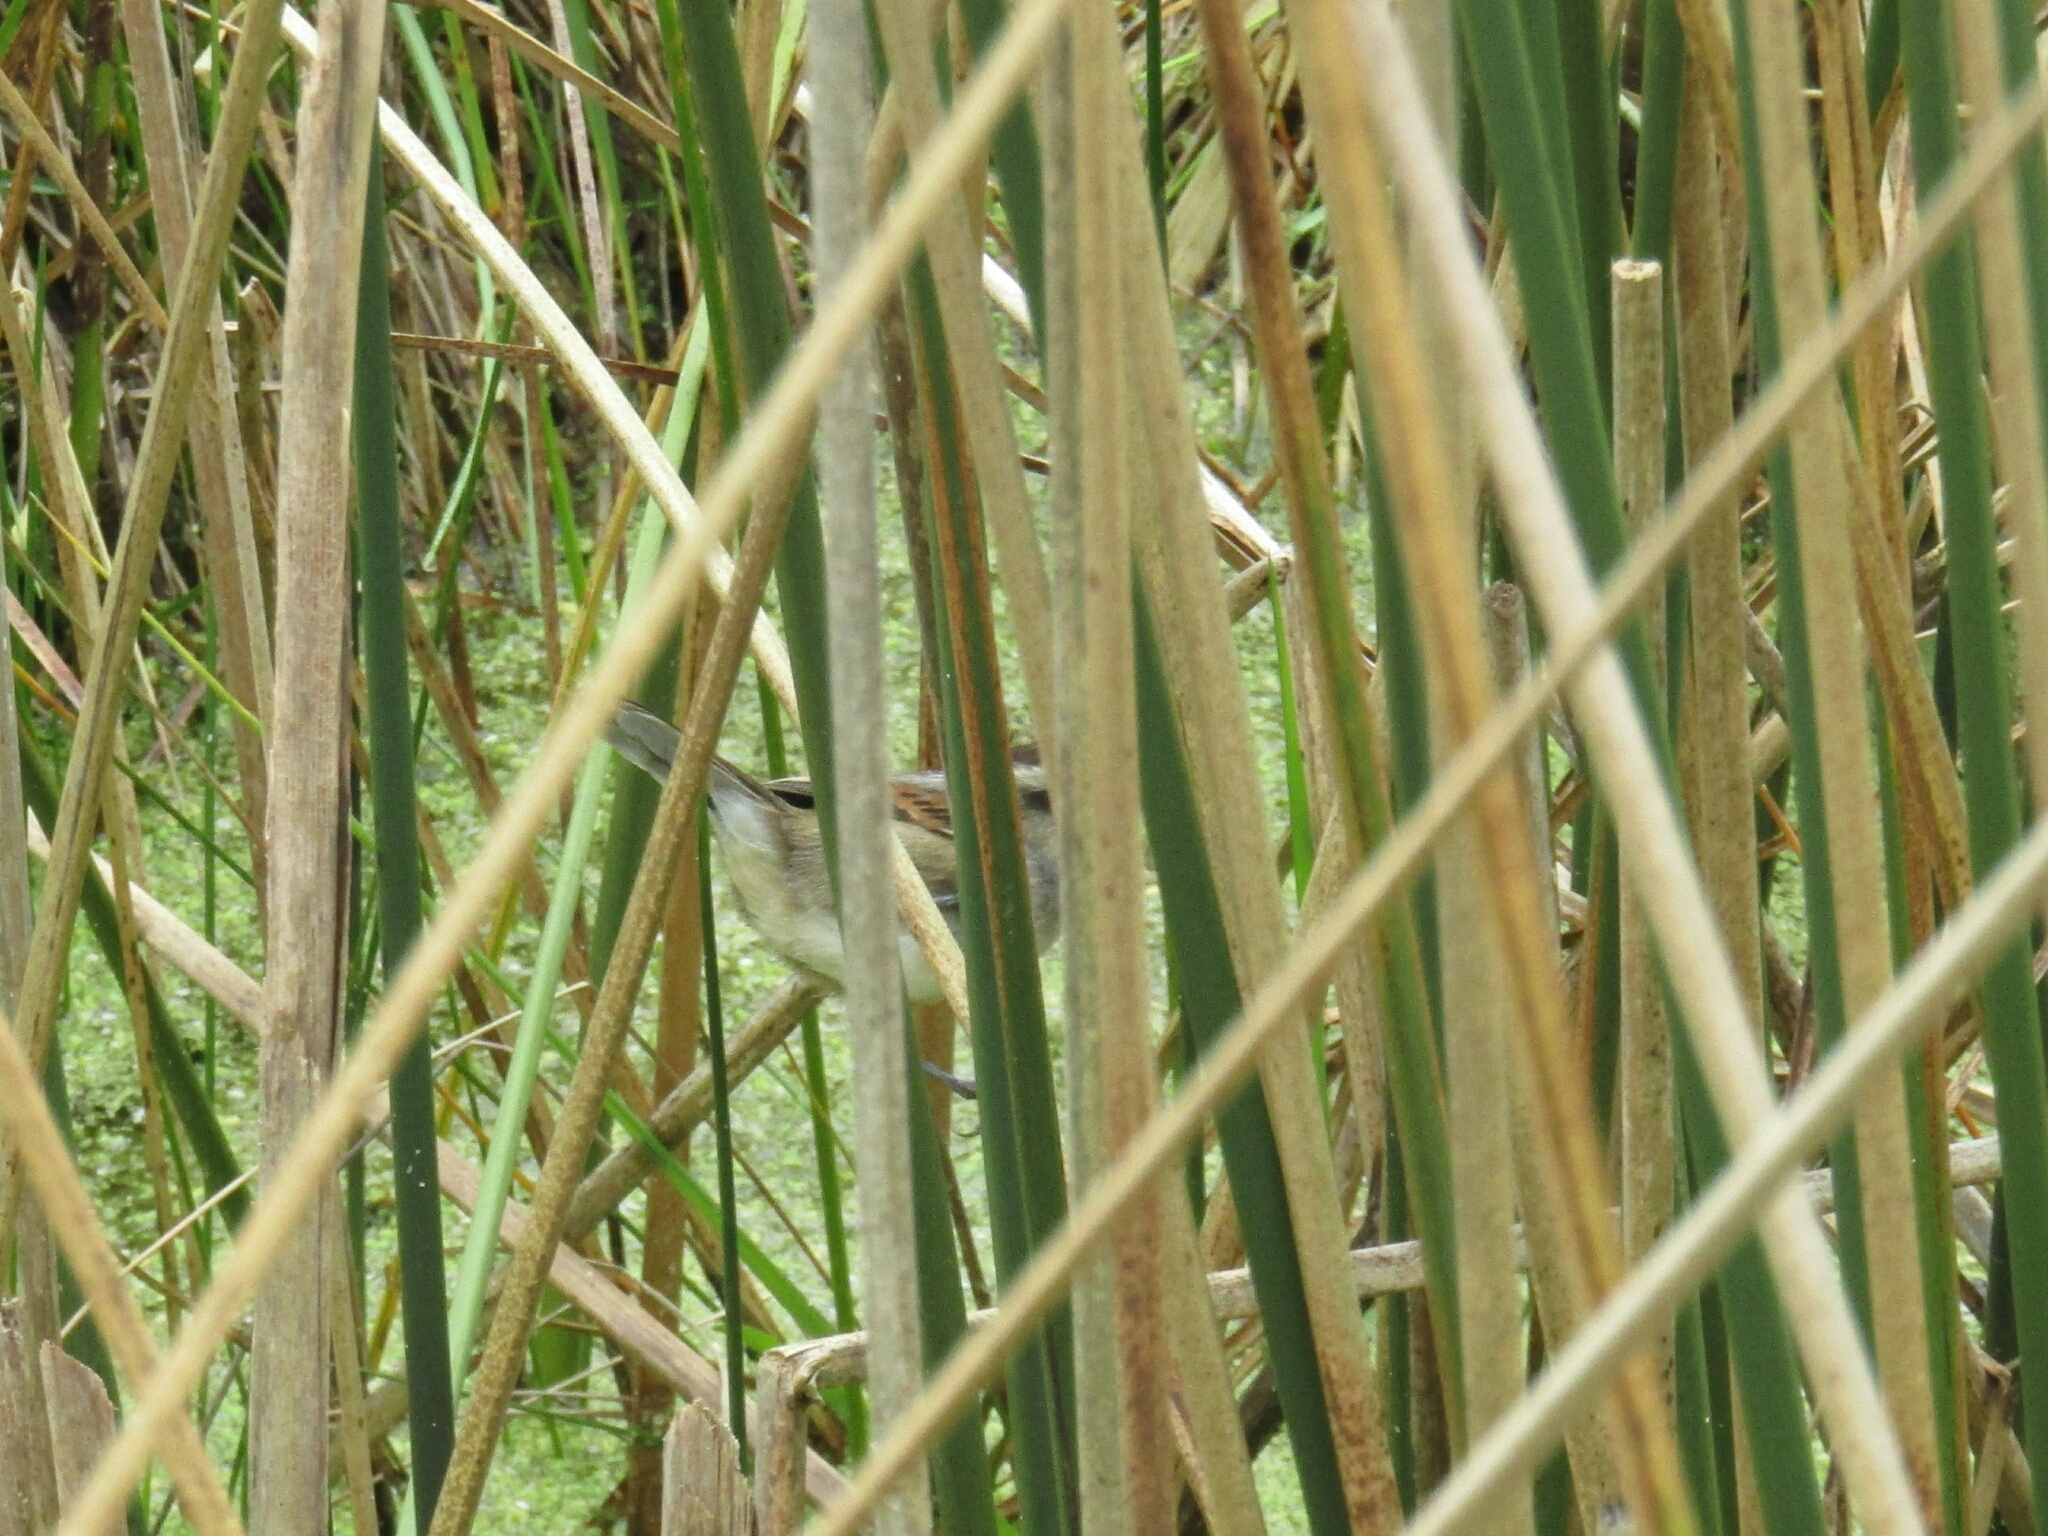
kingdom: Animalia
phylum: Chordata
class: Aves
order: Passeriformes
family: Furnariidae
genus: Phleocryptes
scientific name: Phleocryptes melanops
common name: Wren-like rushbird
